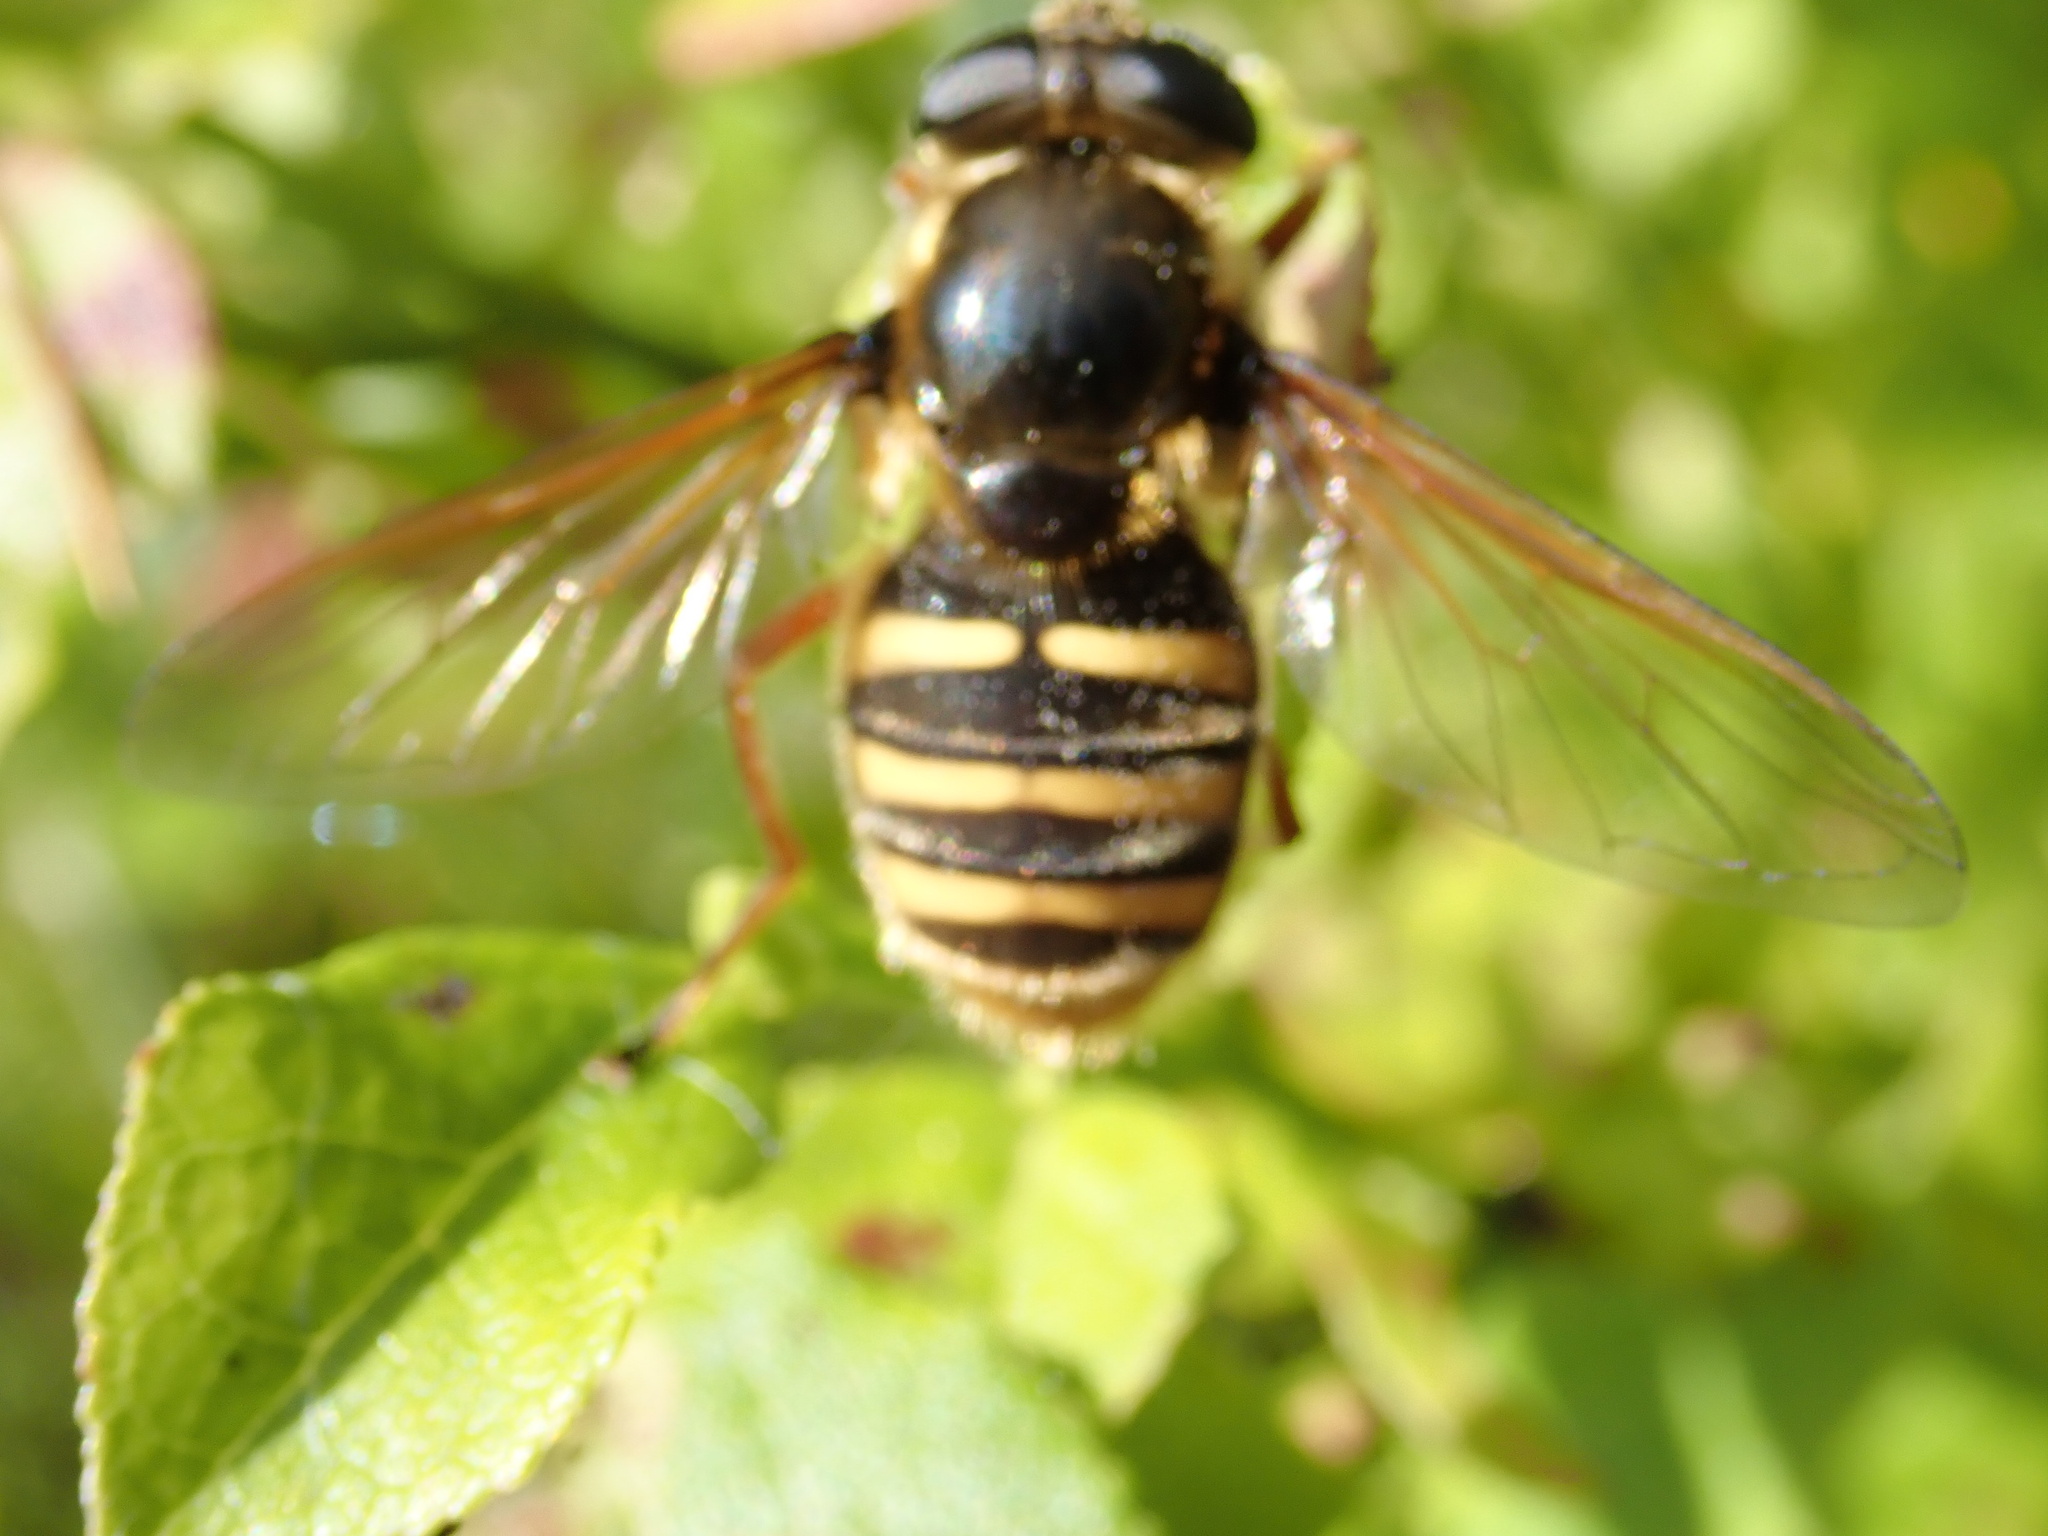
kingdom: Animalia
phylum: Arthropoda
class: Insecta
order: Diptera
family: Syrphidae
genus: Sericomyia
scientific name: Sericomyia silentis
